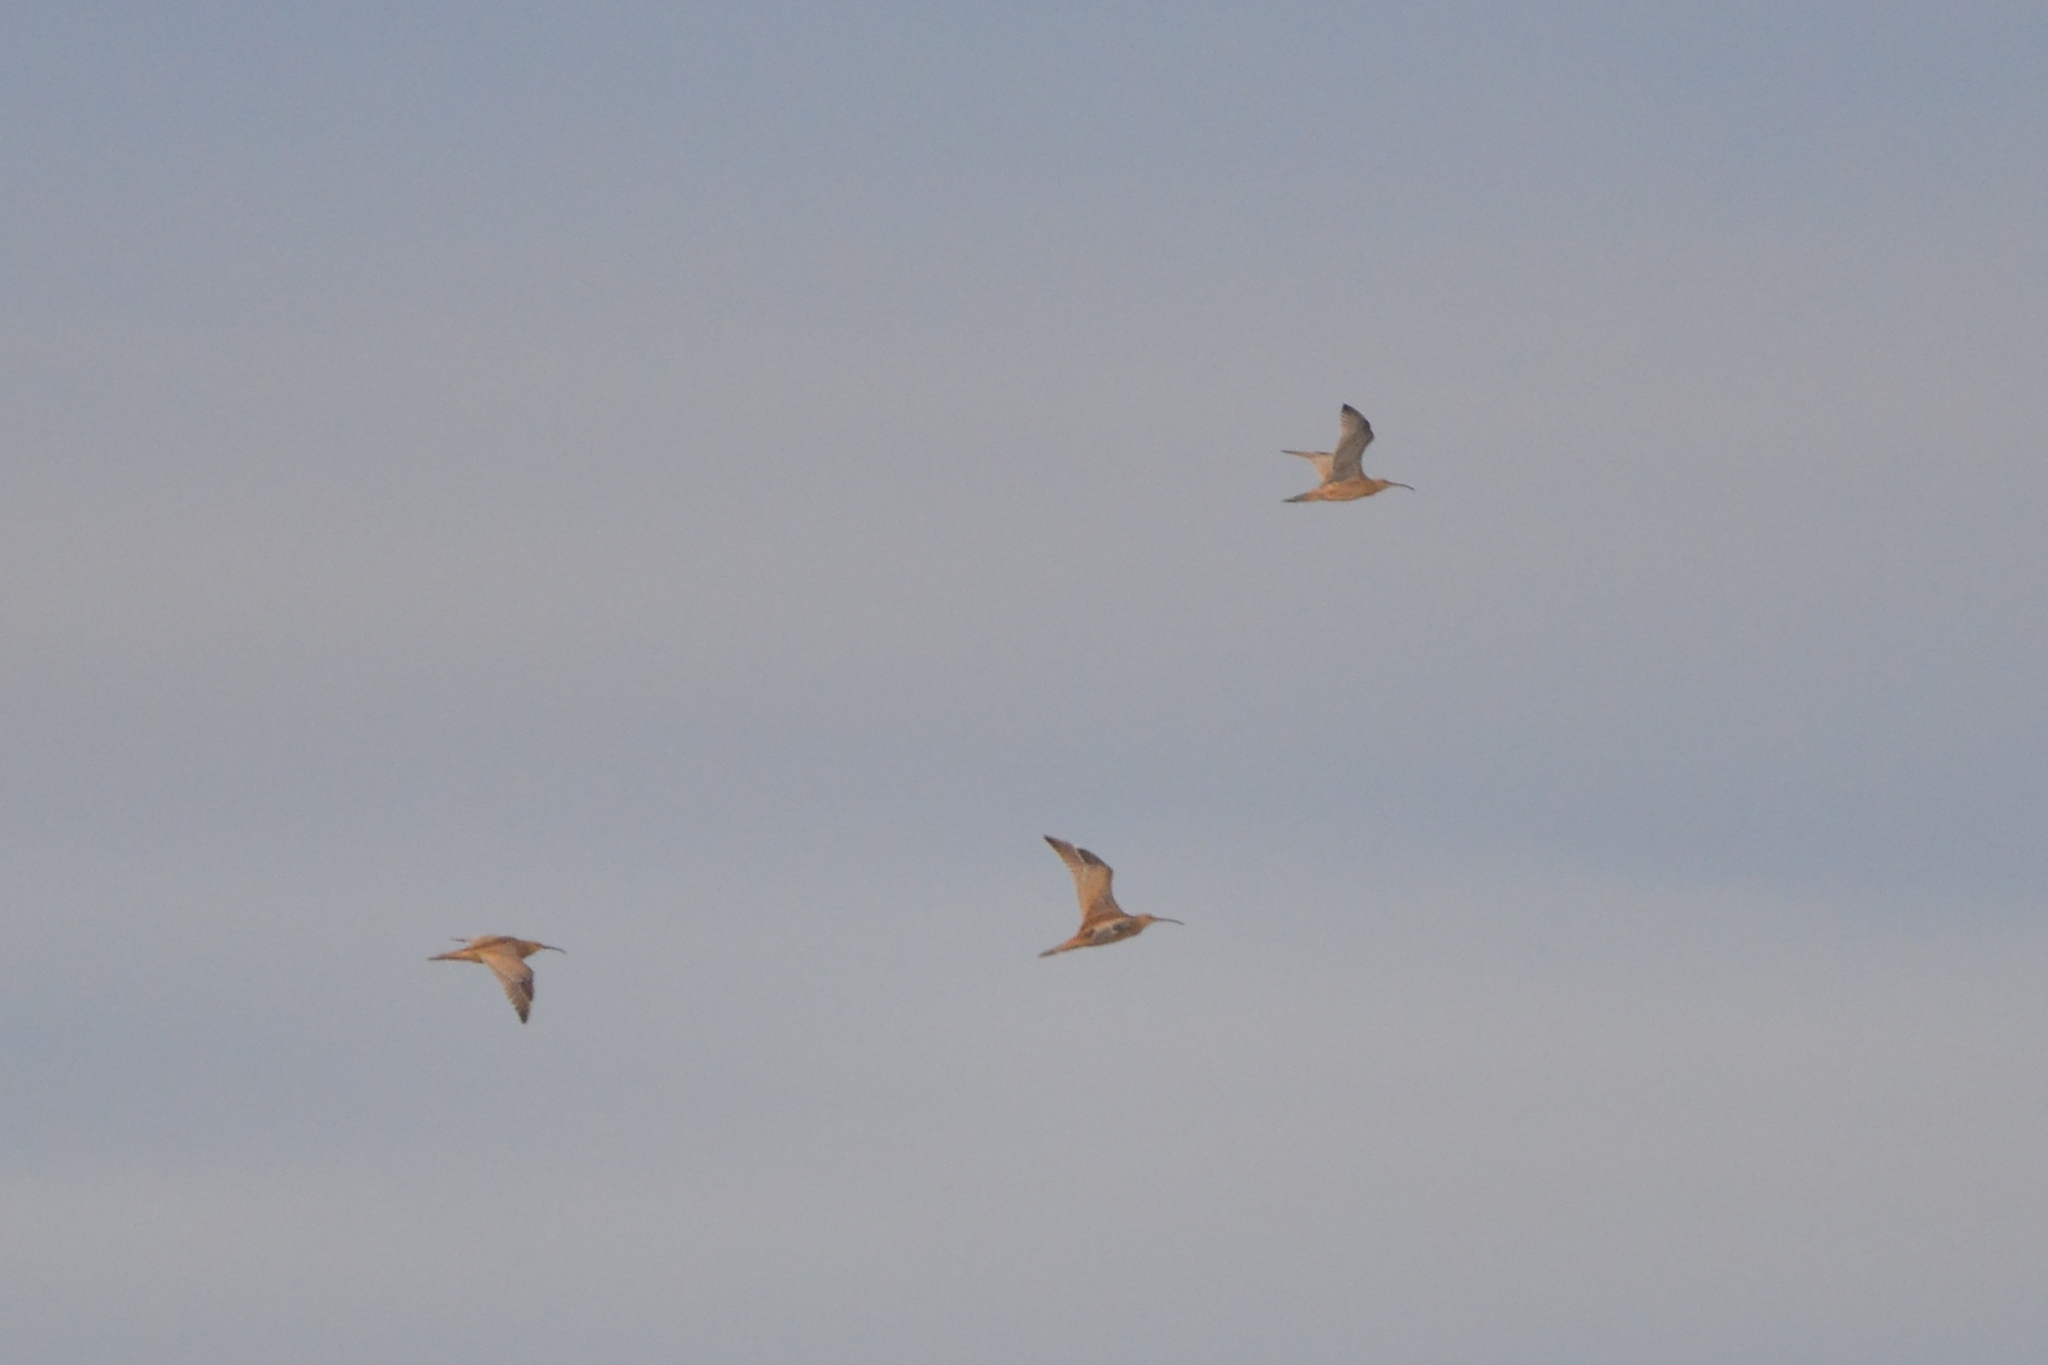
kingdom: Animalia
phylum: Chordata
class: Aves
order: Charadriiformes
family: Scolopacidae
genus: Numenius
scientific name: Numenius madagascariensis
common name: Far eastern curlew
